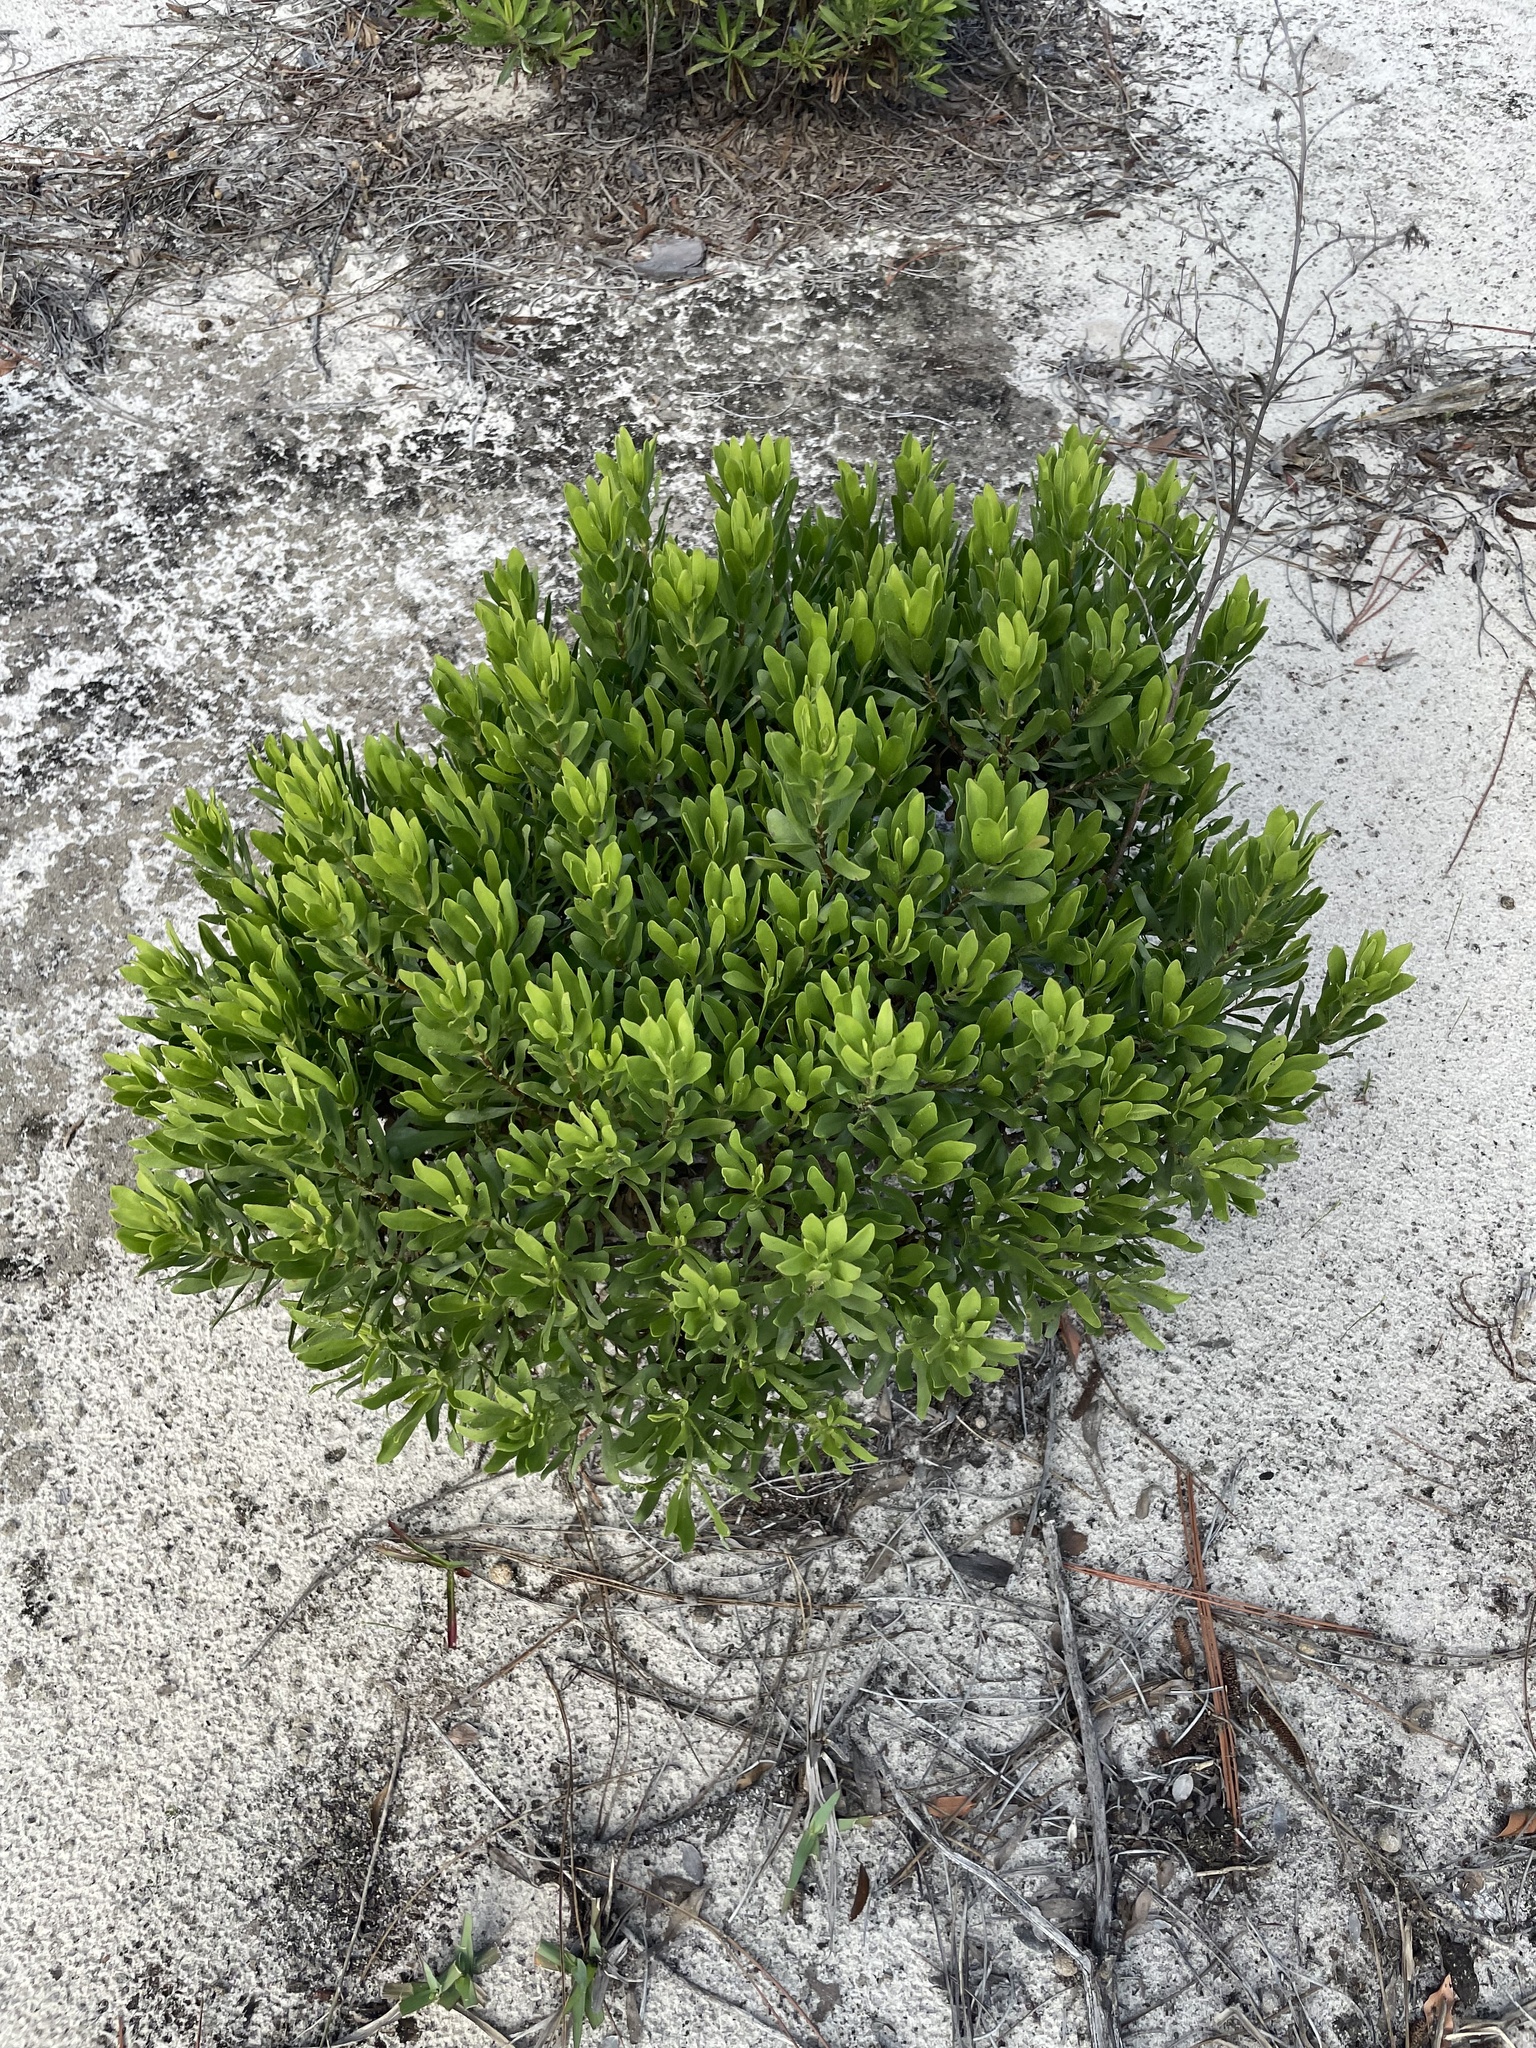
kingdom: Plantae
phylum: Tracheophyta
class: Magnoliopsida
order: Asterales
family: Asteraceae
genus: Chrysoma
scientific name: Chrysoma pauciflosculosa
